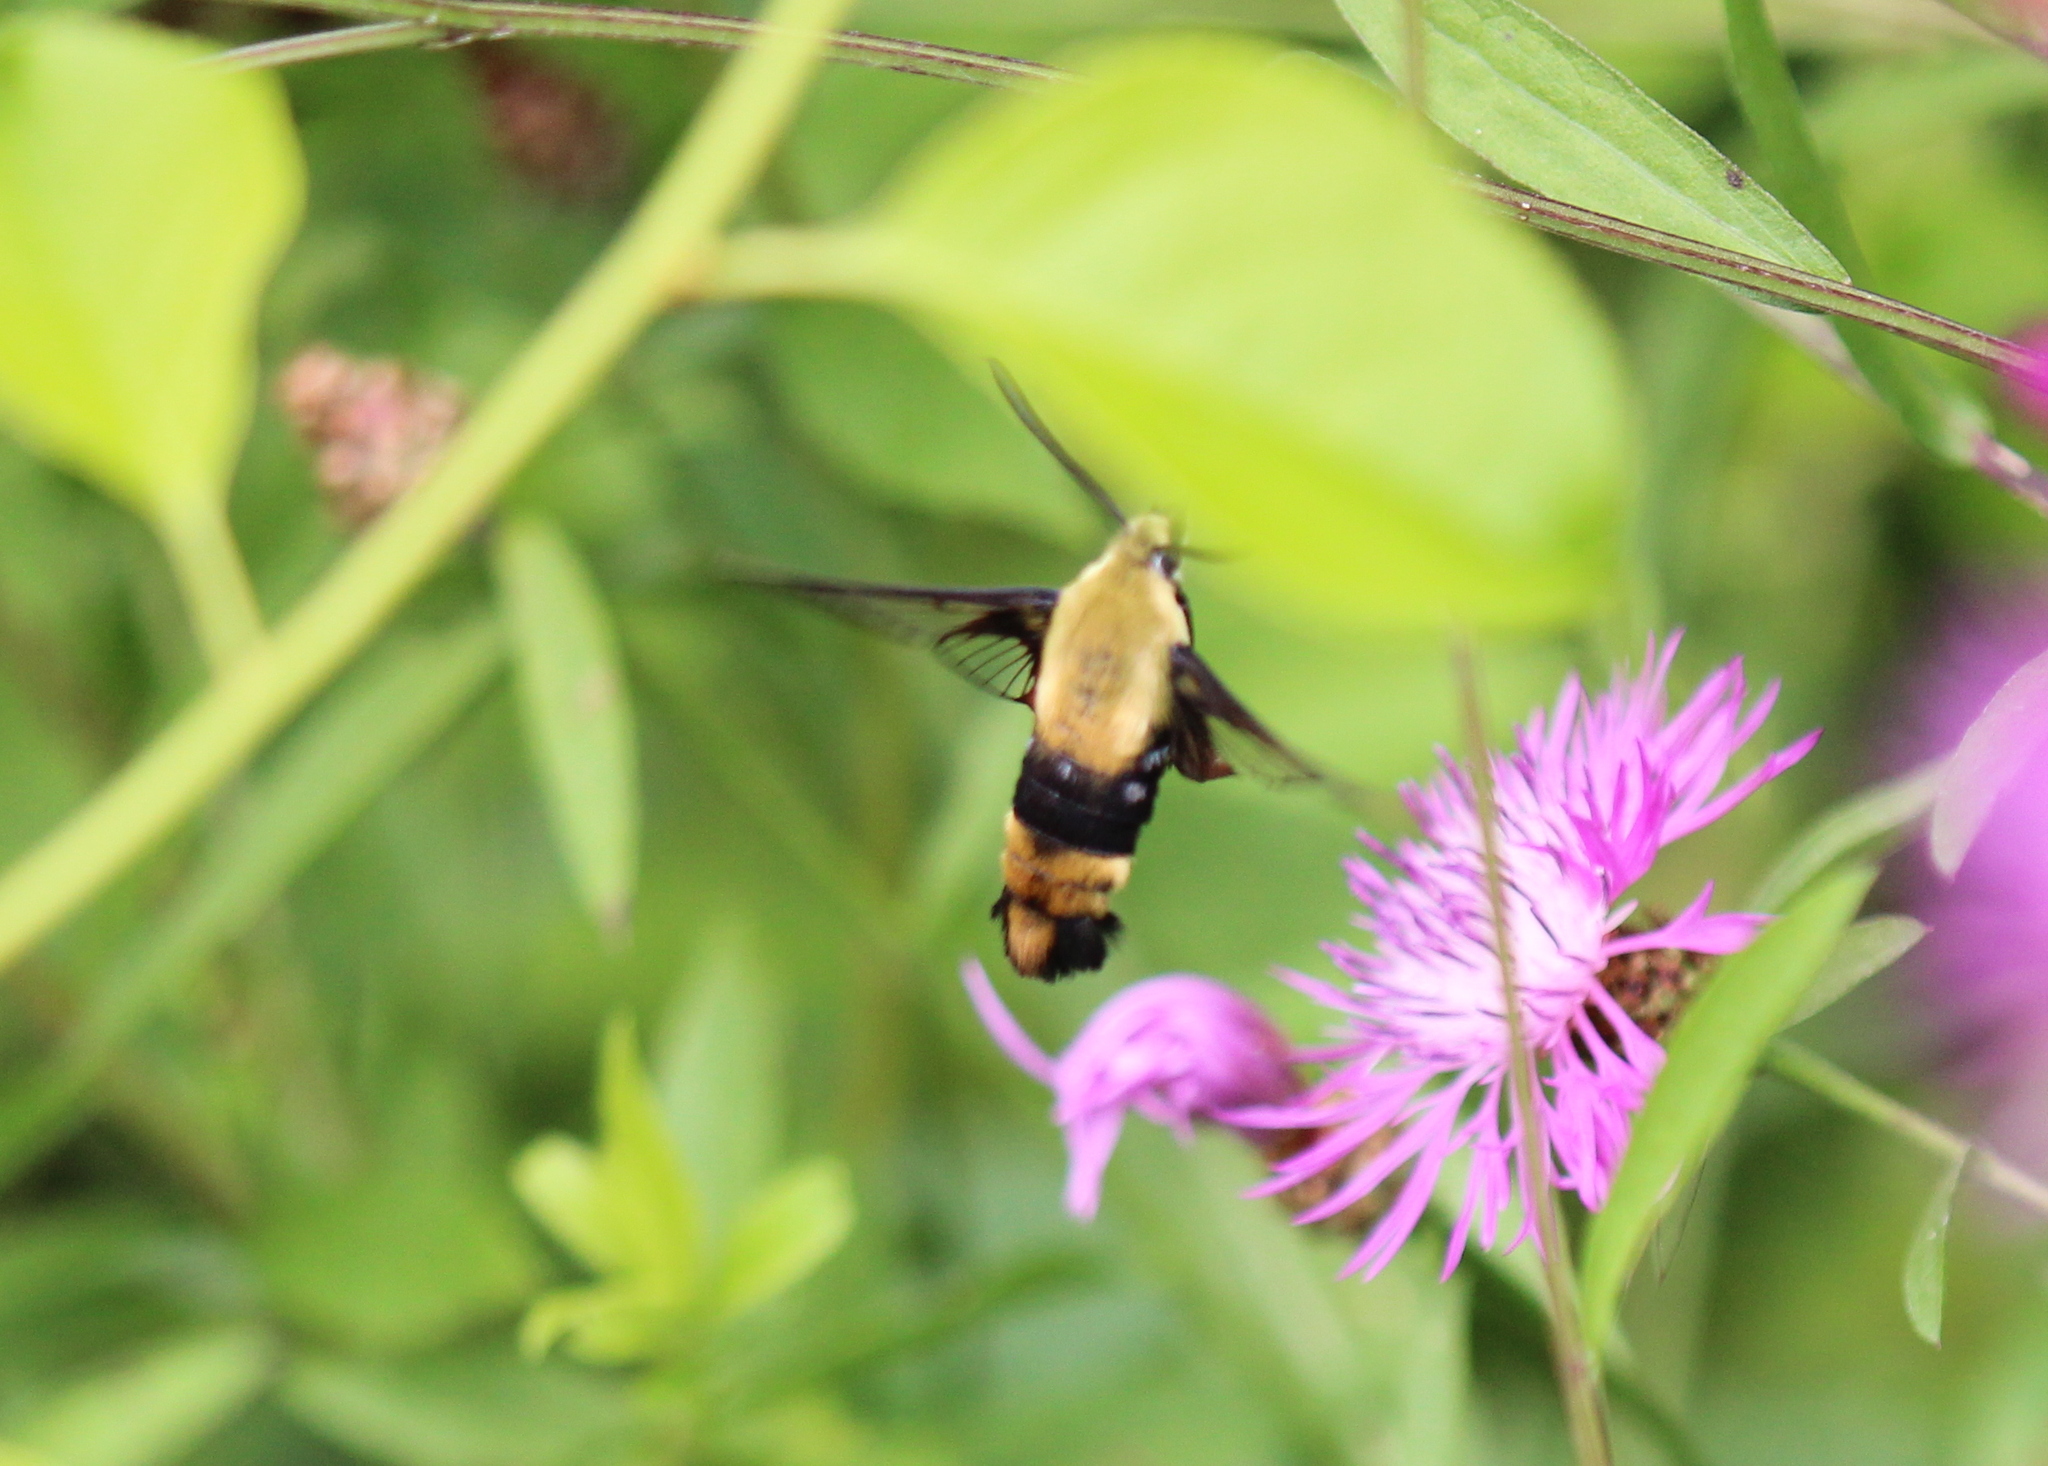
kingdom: Animalia
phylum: Arthropoda
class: Insecta
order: Lepidoptera
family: Sphingidae
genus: Hemaris
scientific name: Hemaris diffinis
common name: Bumblebee moth
